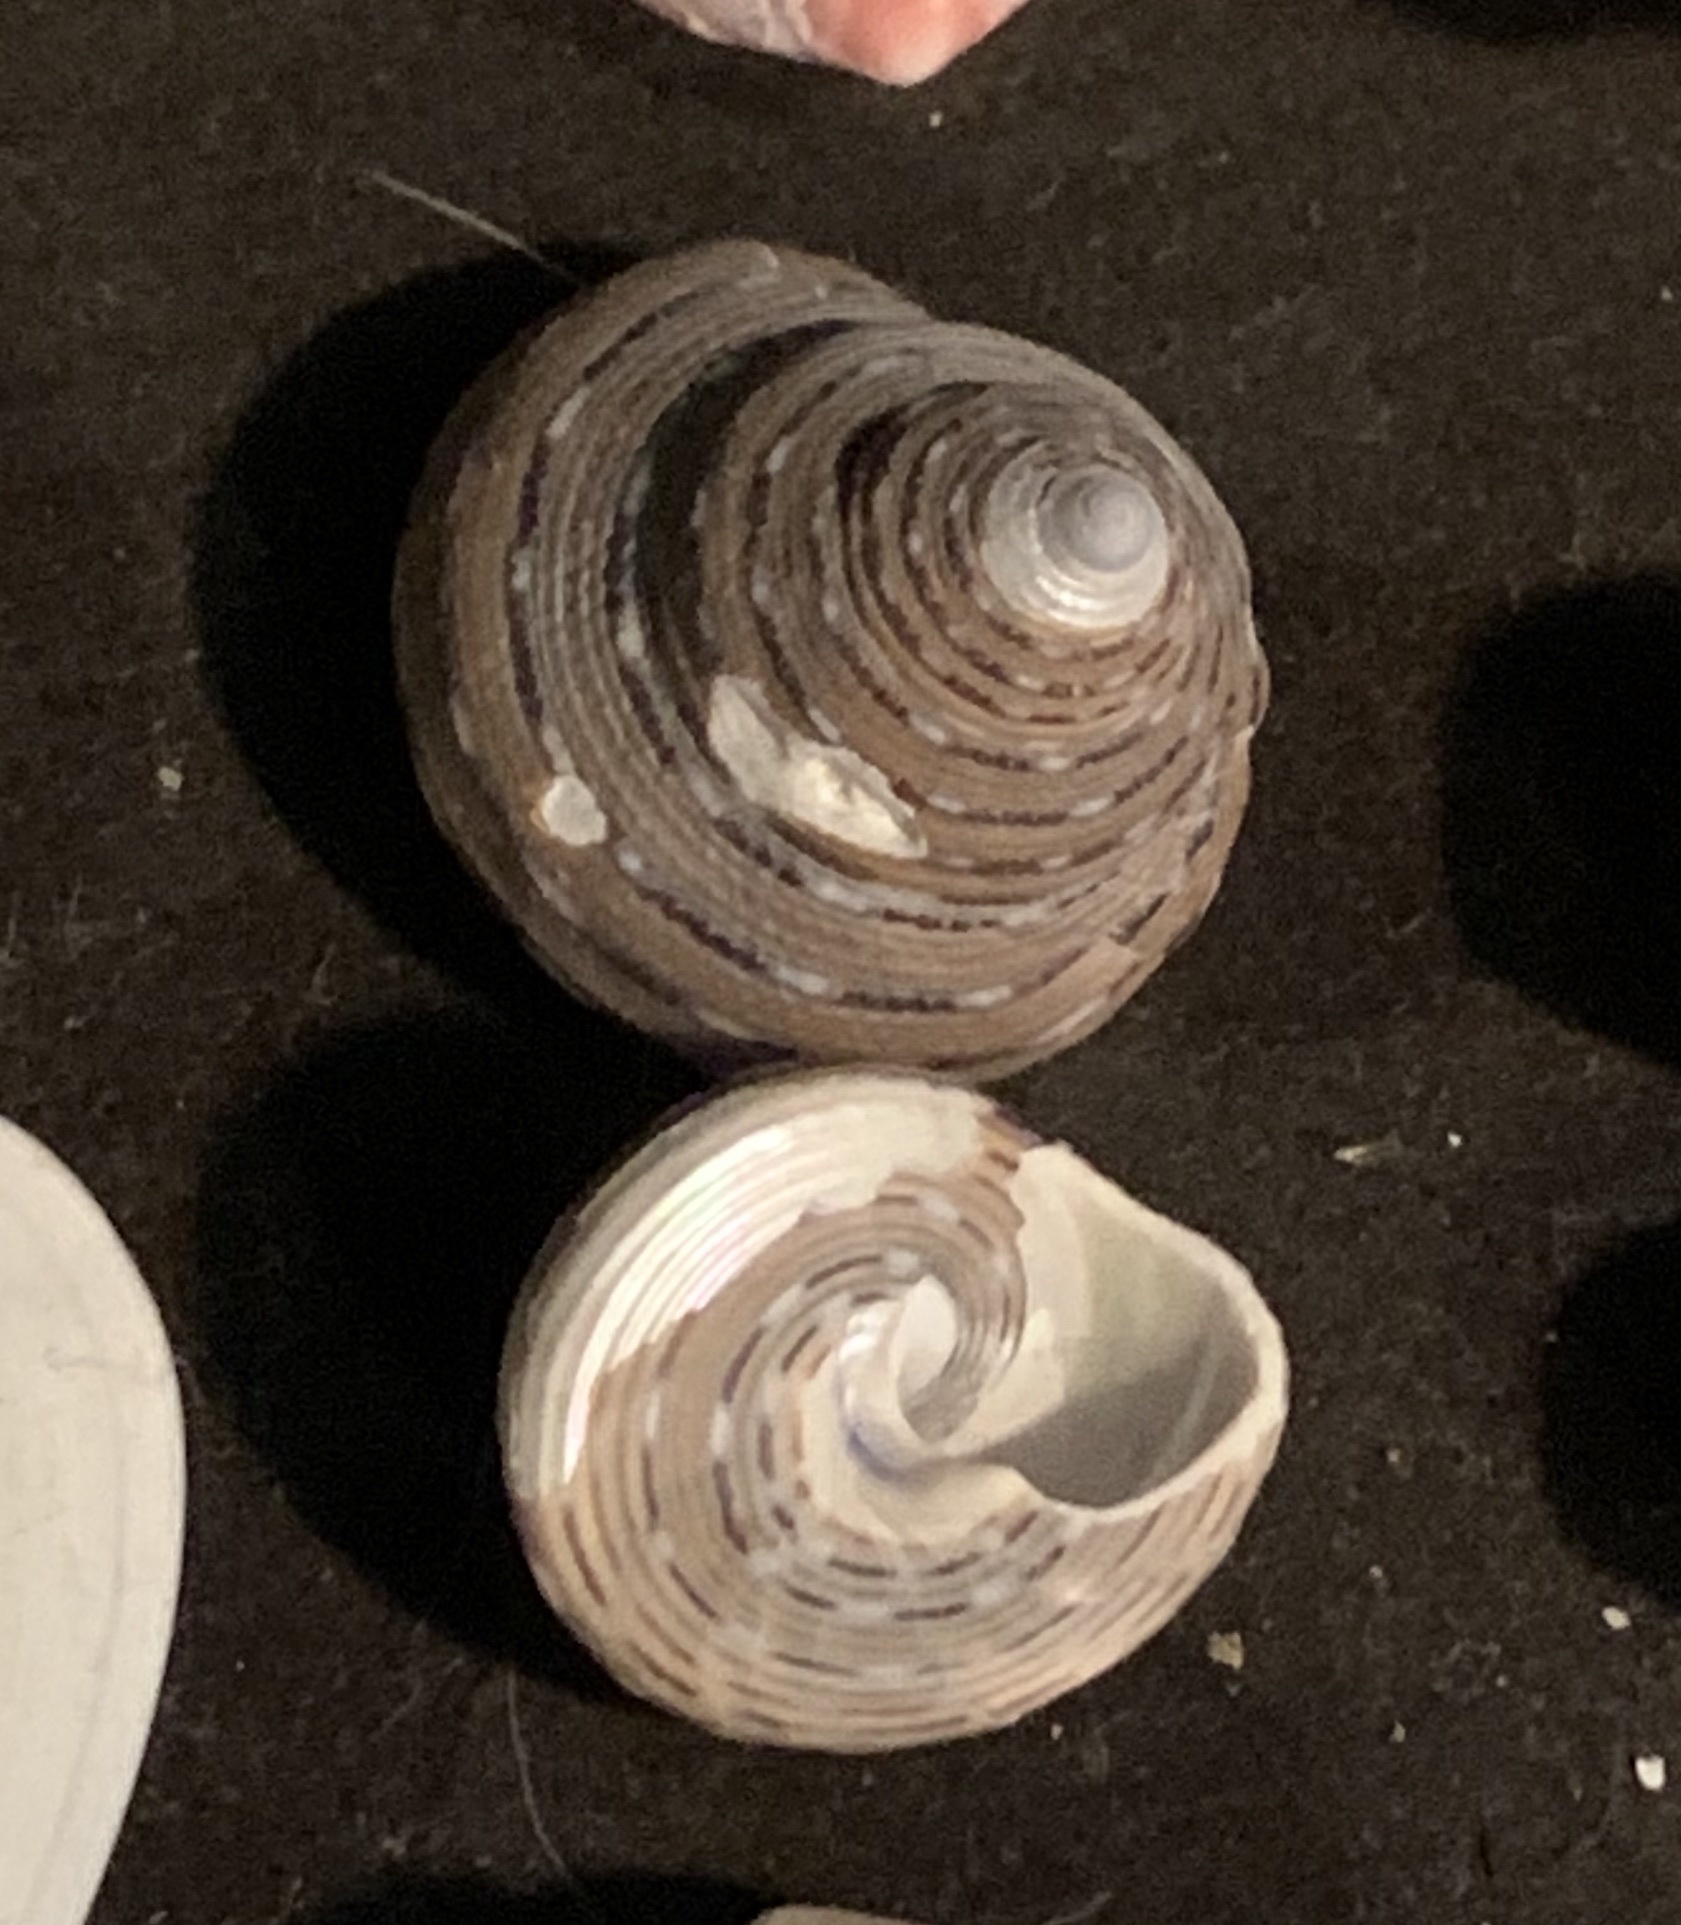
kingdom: Animalia
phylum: Mollusca
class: Gastropoda
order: Trochida
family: Calliostomatidae
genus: Calliostoma
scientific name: Calliostoma tricolor
